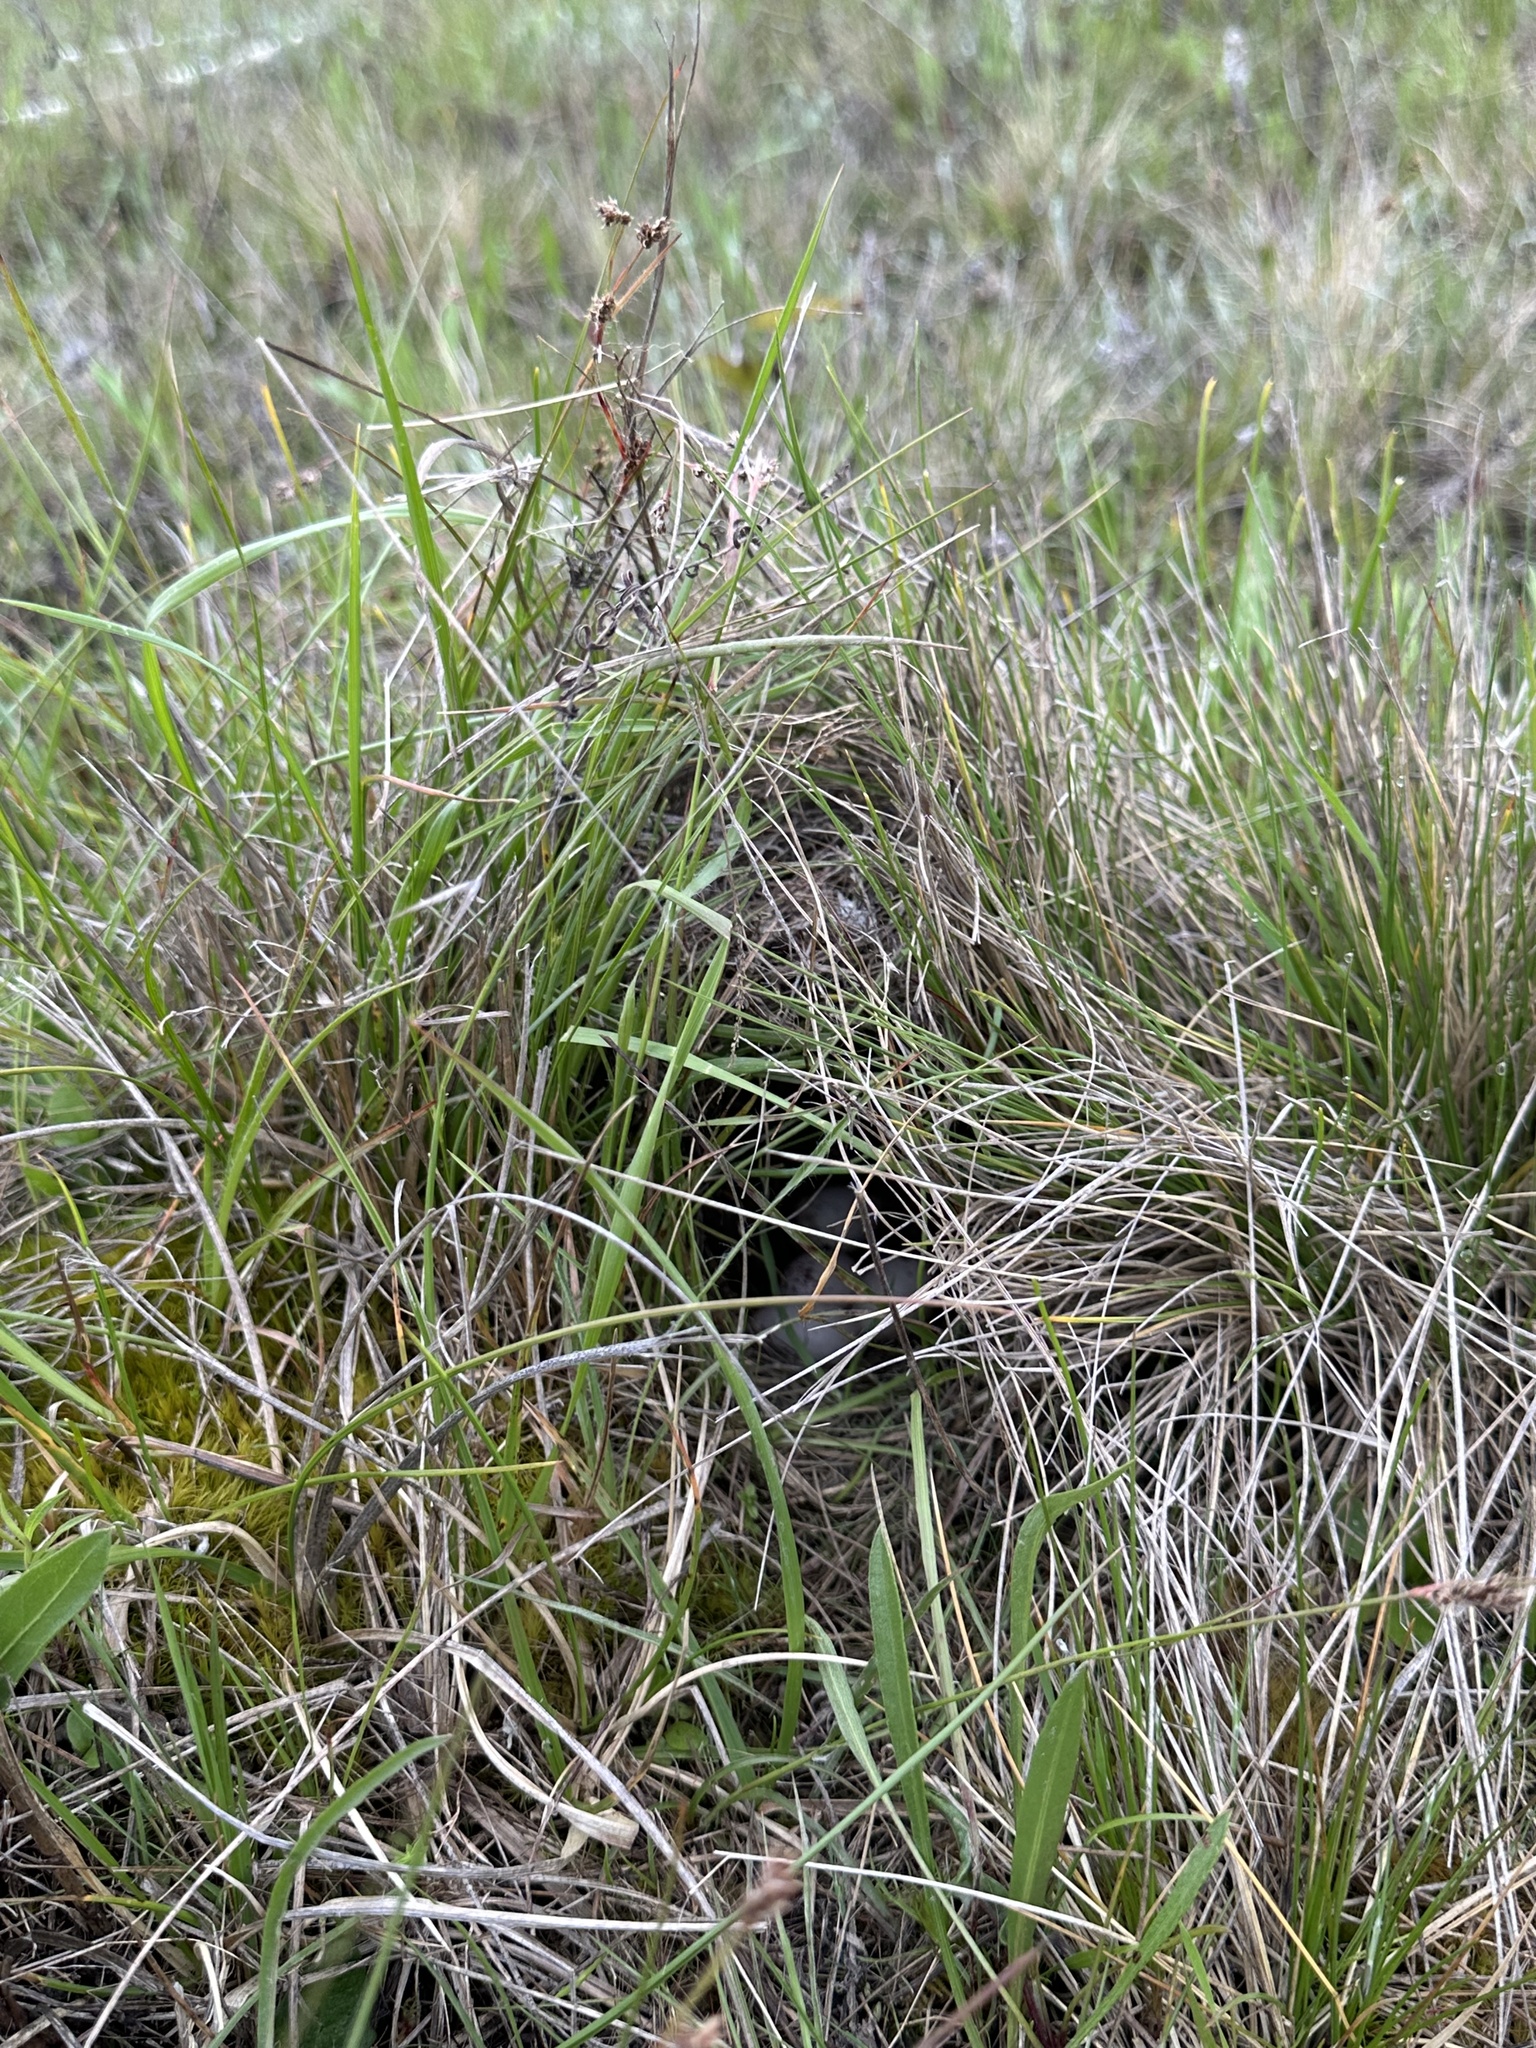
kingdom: Animalia
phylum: Chordata
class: Aves
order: Passeriformes
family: Icteridae
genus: Sturnella
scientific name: Sturnella neglecta
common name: Western meadowlark
